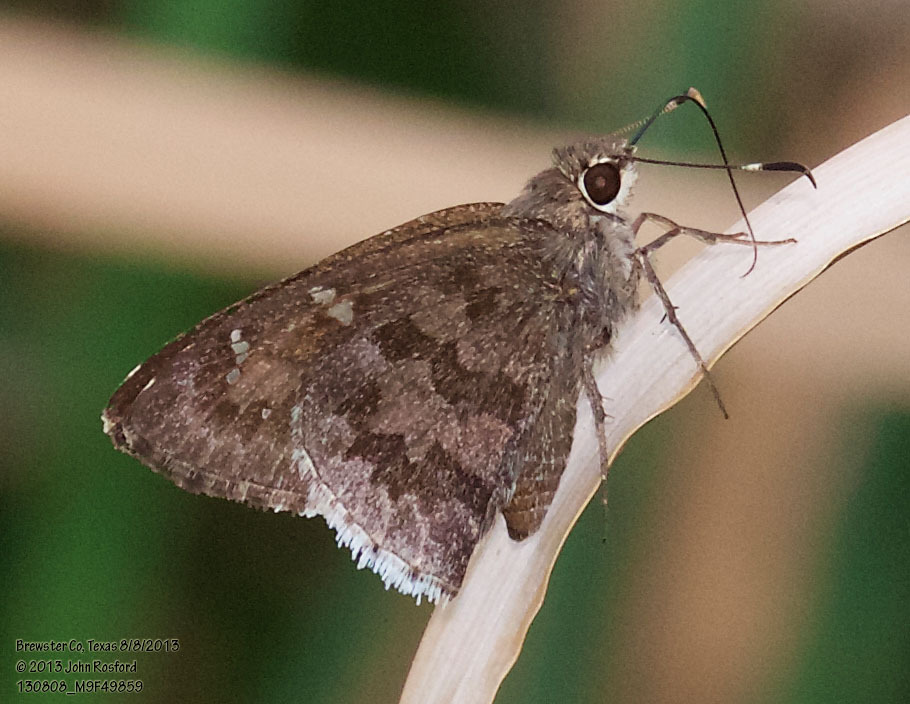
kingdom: Animalia
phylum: Arthropoda
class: Insecta
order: Lepidoptera
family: Hesperiidae
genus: Cogia
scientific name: Cogia hippalus
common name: Acacia skipper
